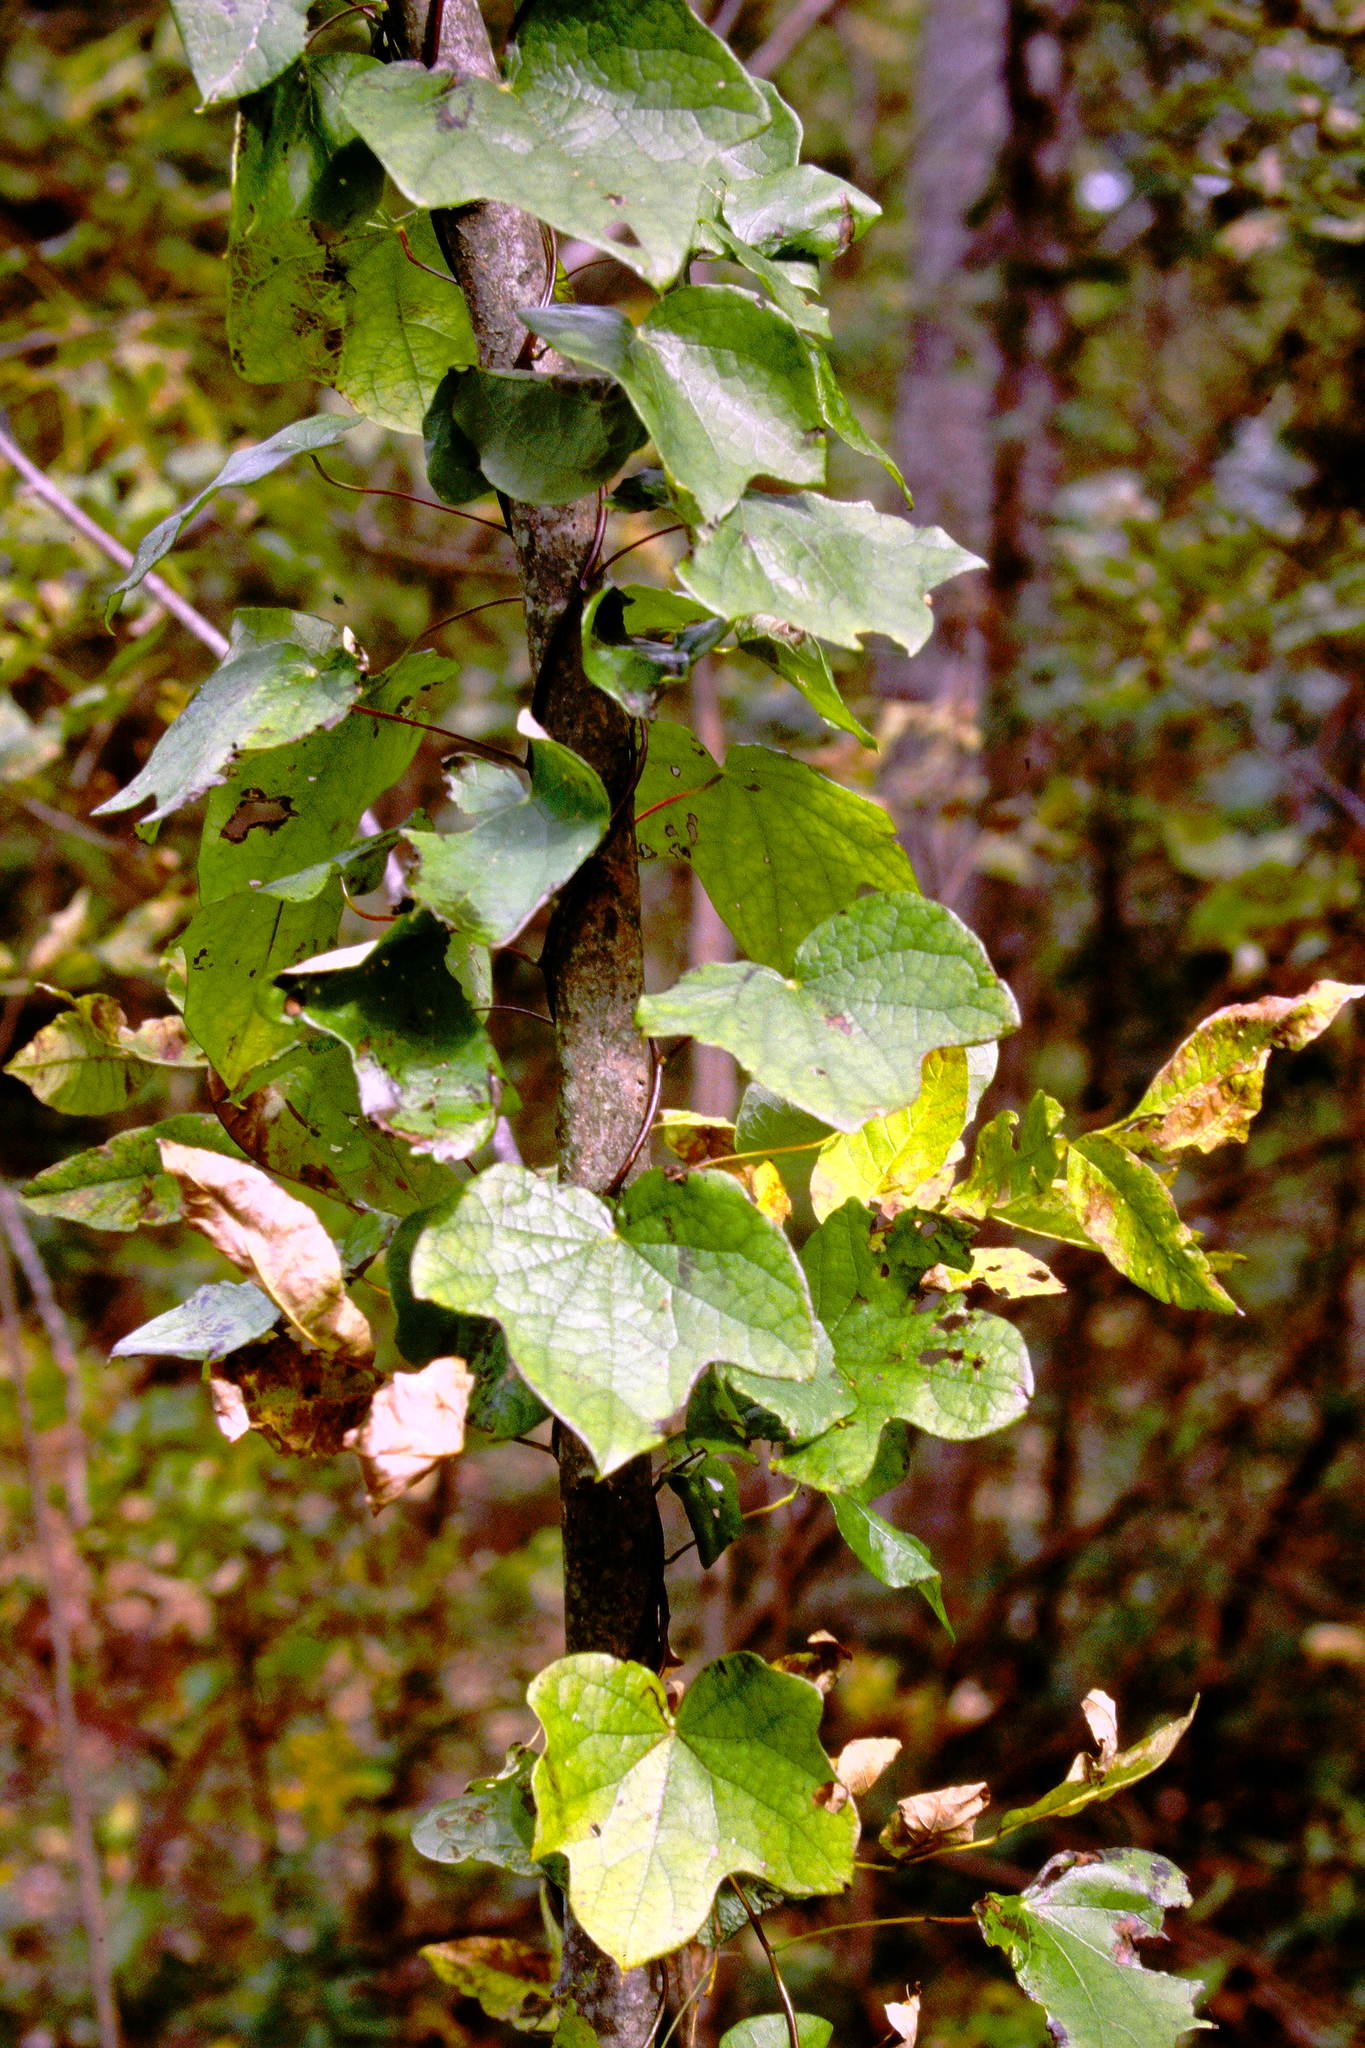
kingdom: Plantae
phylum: Tracheophyta
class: Magnoliopsida
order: Ranunculales
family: Menispermaceae
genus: Menispermum
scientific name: Menispermum canadense
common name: Moonseed
